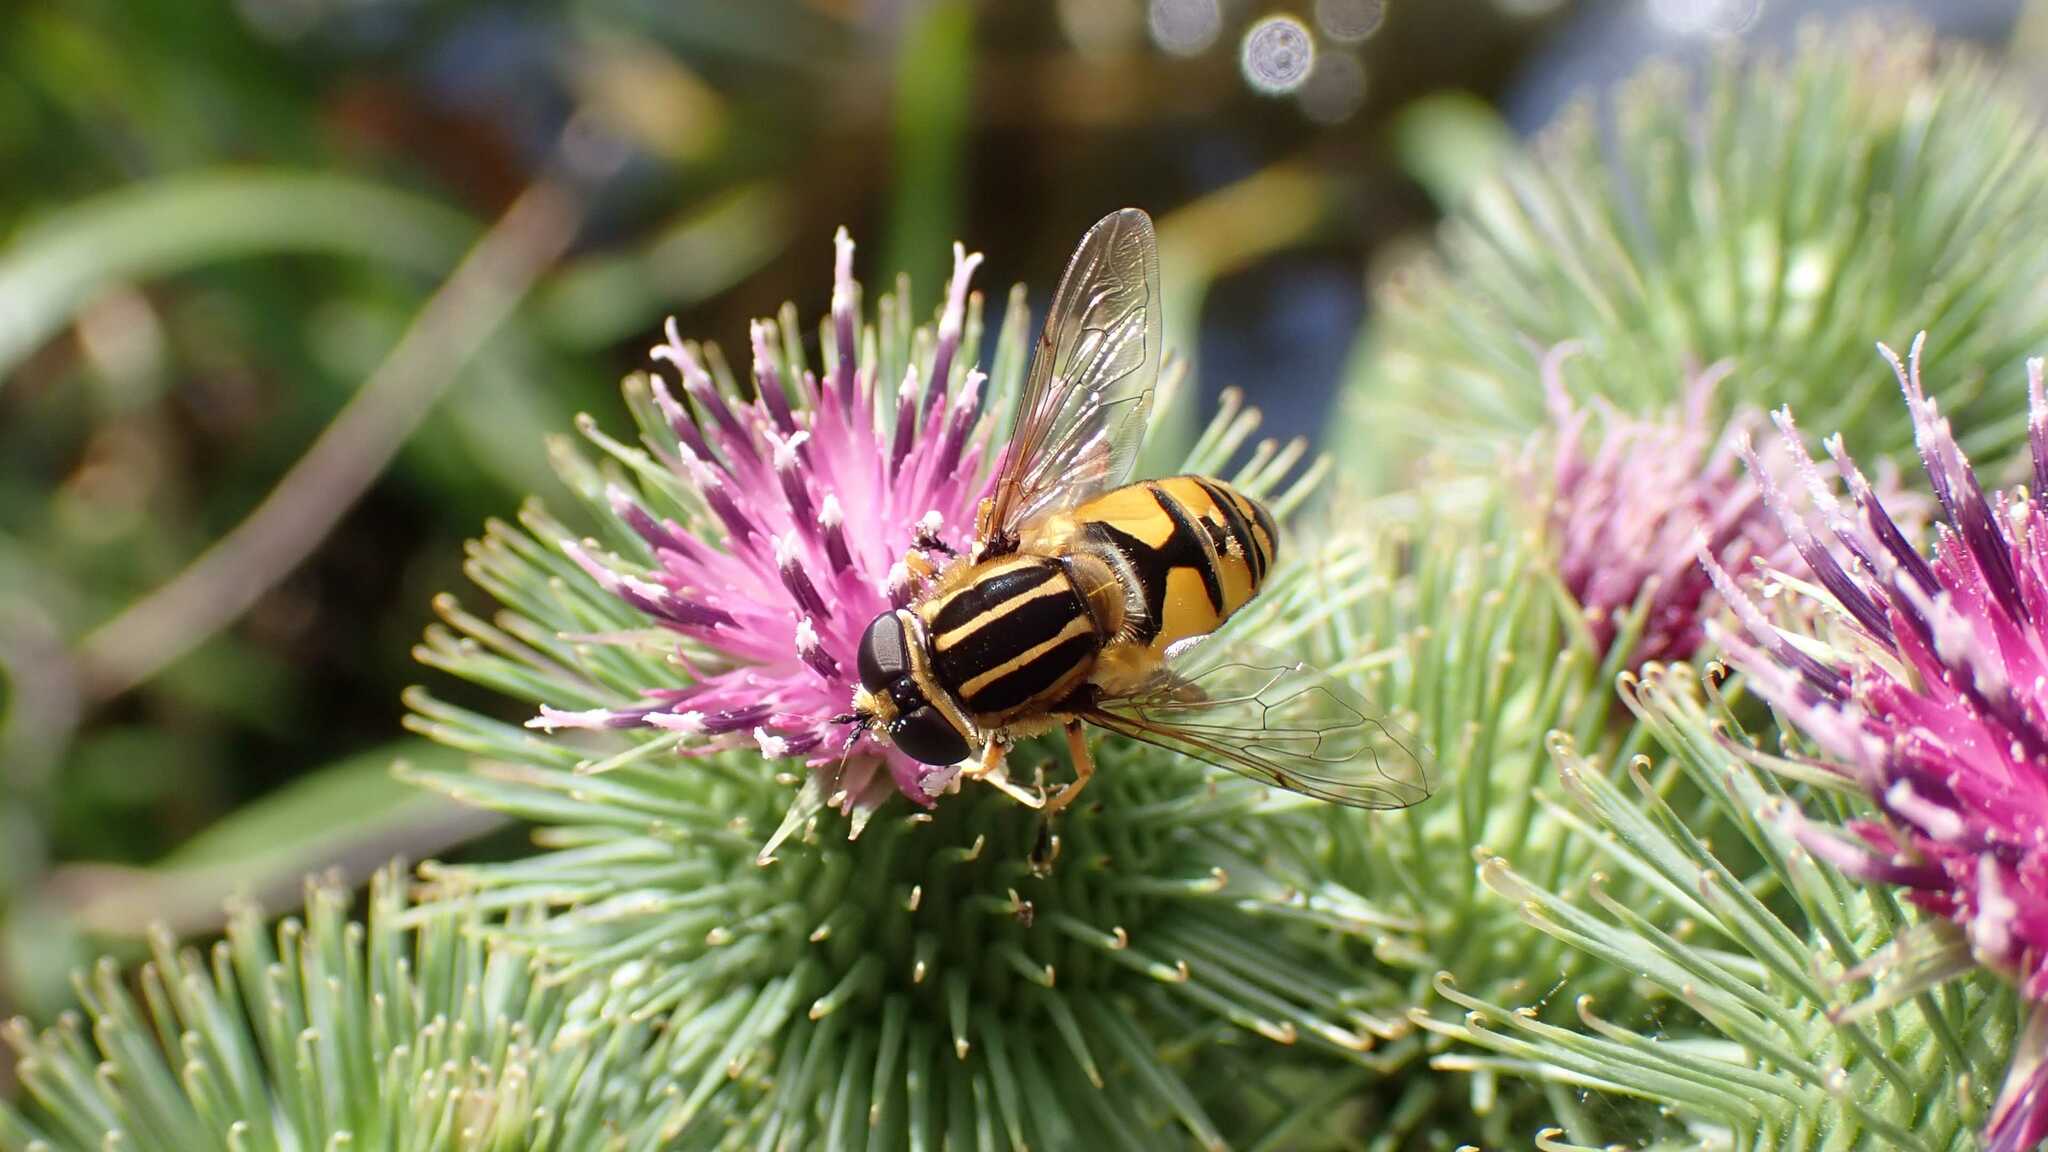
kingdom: Animalia
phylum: Arthropoda
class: Insecta
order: Diptera
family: Syrphidae
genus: Helophilus
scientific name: Helophilus pendulus
